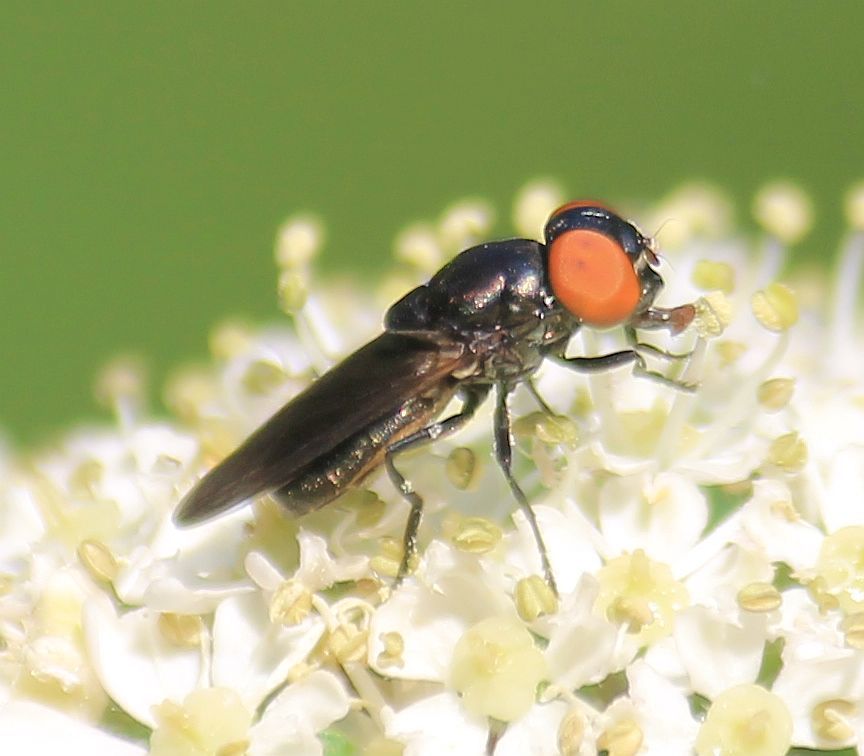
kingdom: Animalia
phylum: Arthropoda
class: Insecta
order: Diptera
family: Syrphidae
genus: Chrysogaster
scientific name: Chrysogaster solstitialis
